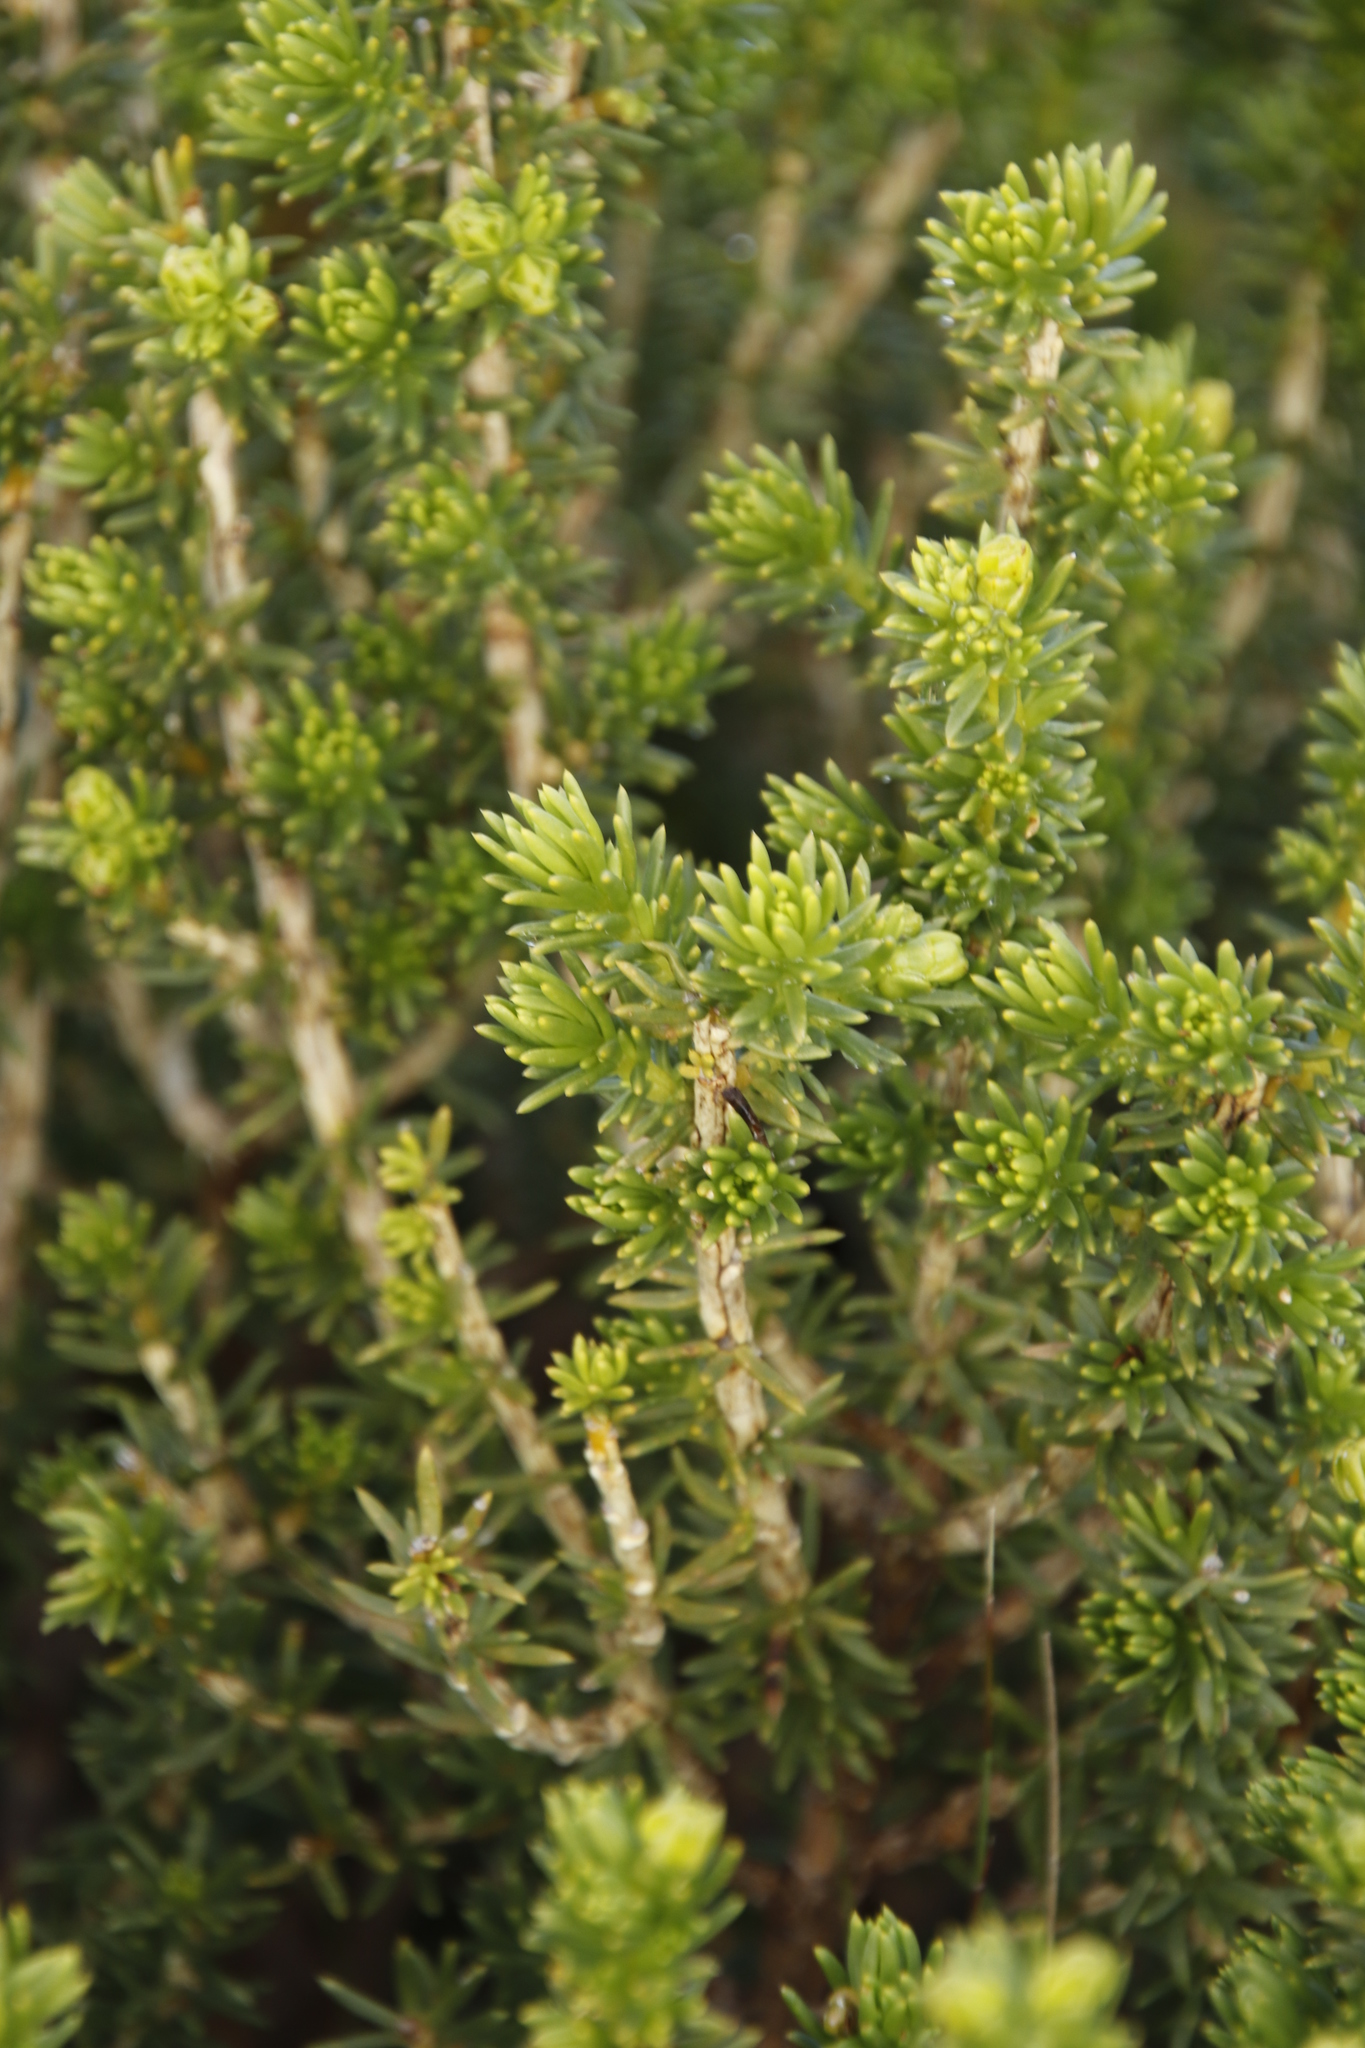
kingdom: Plantae
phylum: Tracheophyta
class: Magnoliopsida
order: Fabales
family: Fabaceae
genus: Aspalathus
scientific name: Aspalathus capensis
